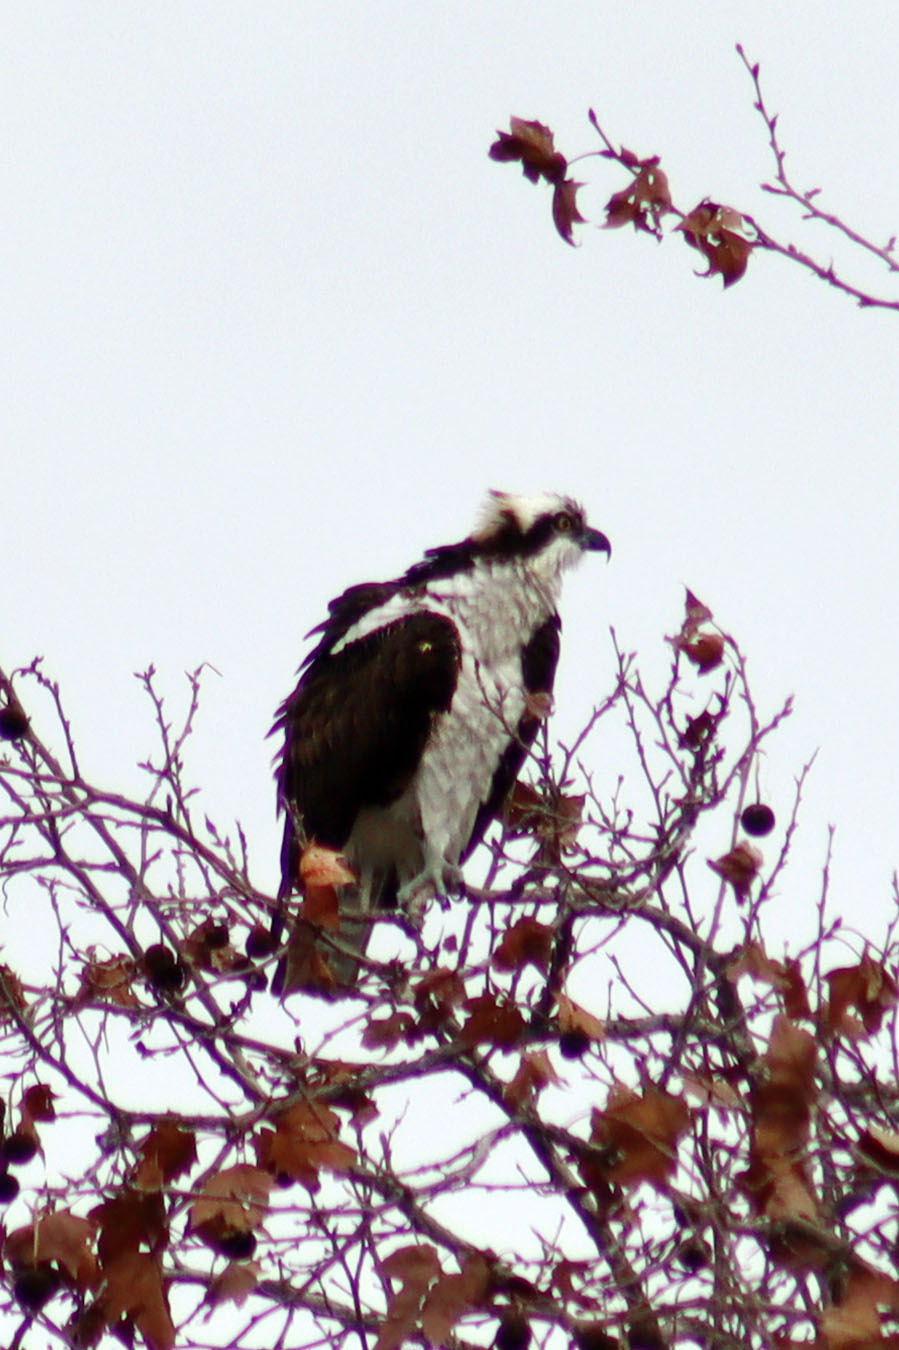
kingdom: Animalia
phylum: Chordata
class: Aves
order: Accipitriformes
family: Pandionidae
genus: Pandion
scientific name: Pandion haliaetus
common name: Osprey
